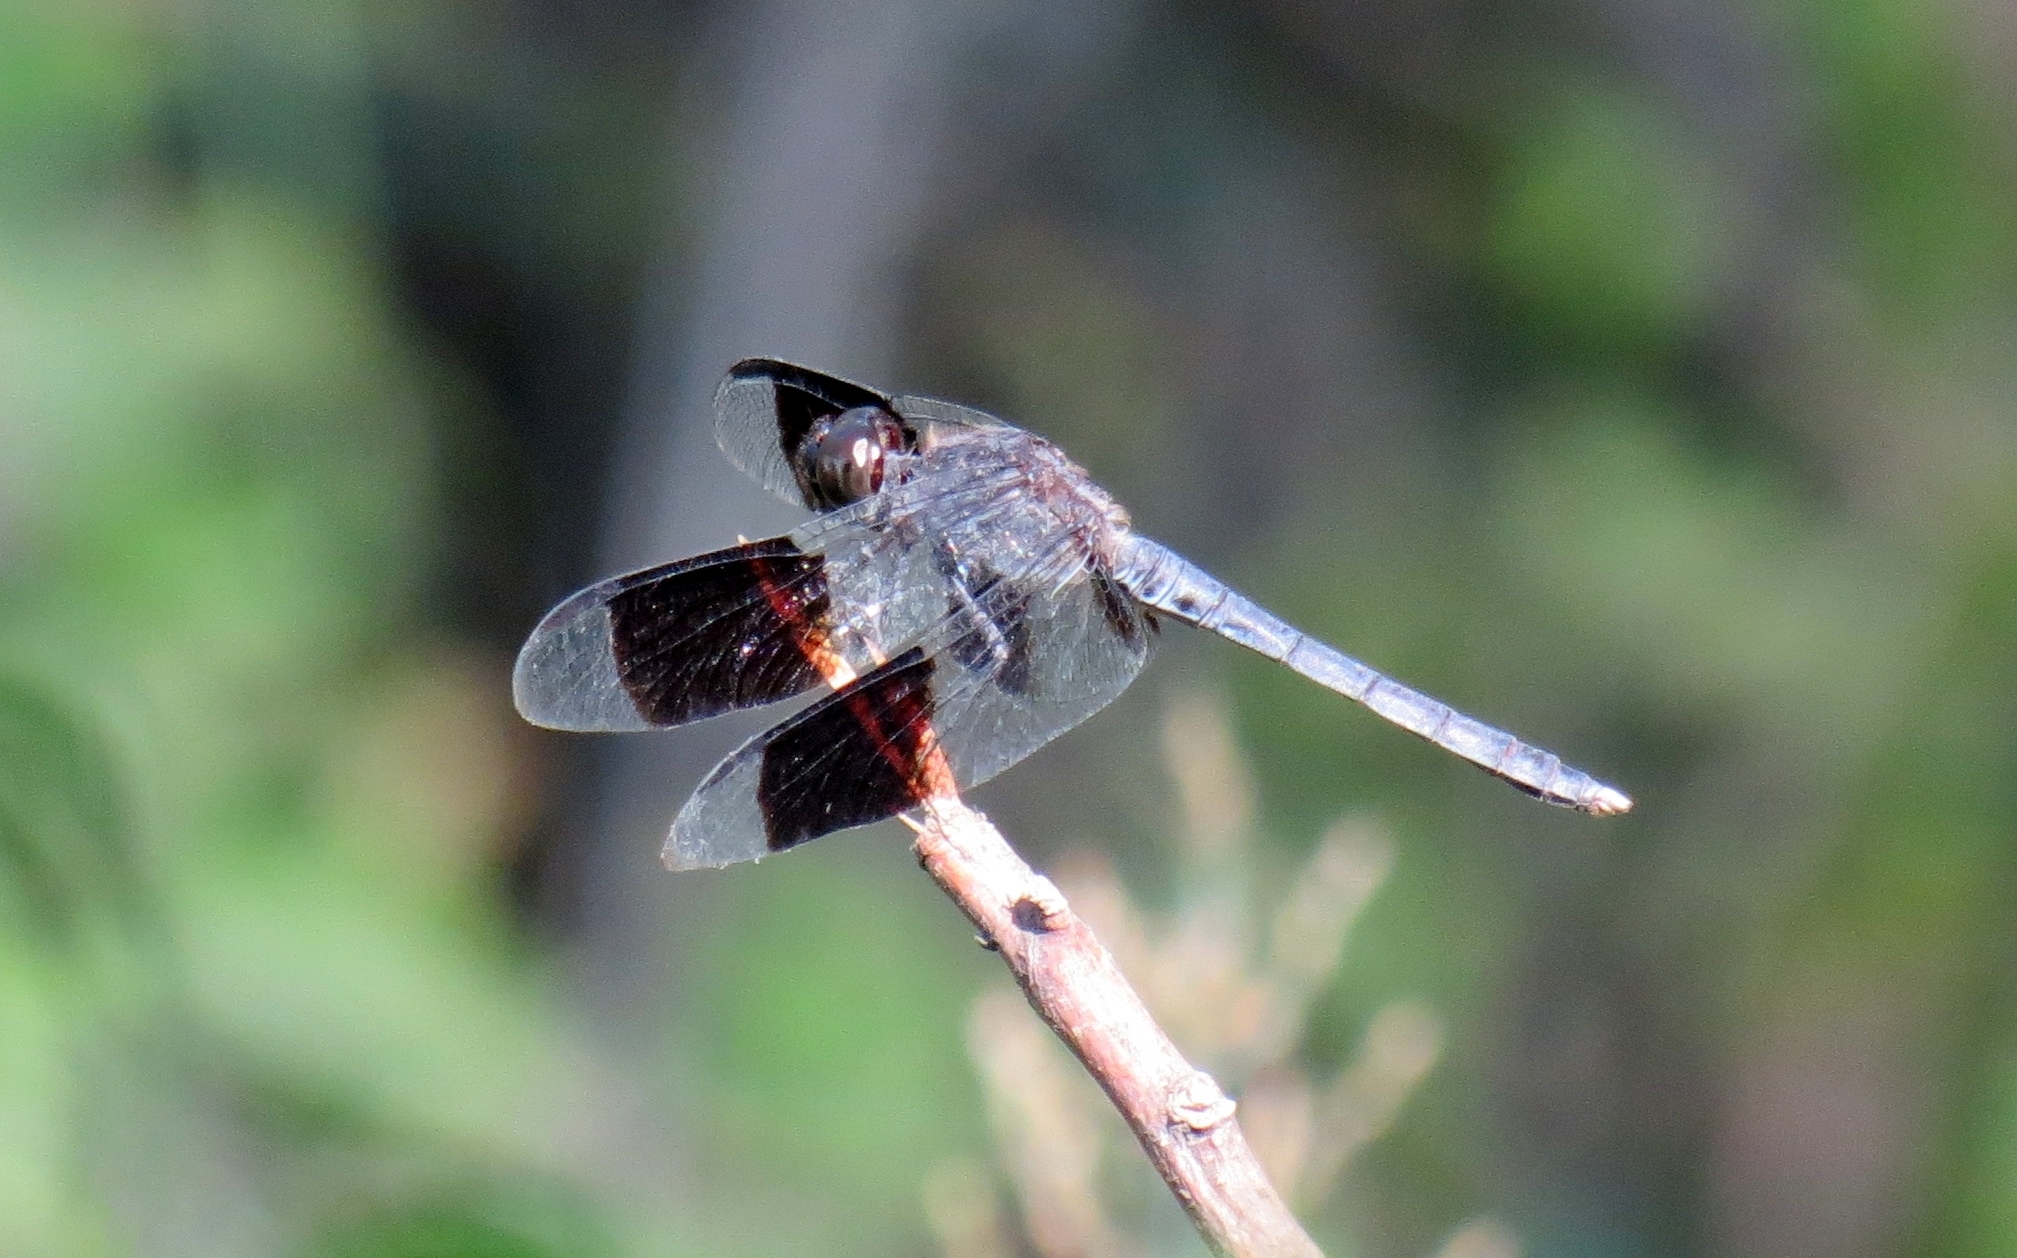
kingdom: Animalia
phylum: Arthropoda
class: Insecta
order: Odonata
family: Libellulidae
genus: Erythrodiplax
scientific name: Erythrodiplax umbrata
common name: Band-winged dragonlet
